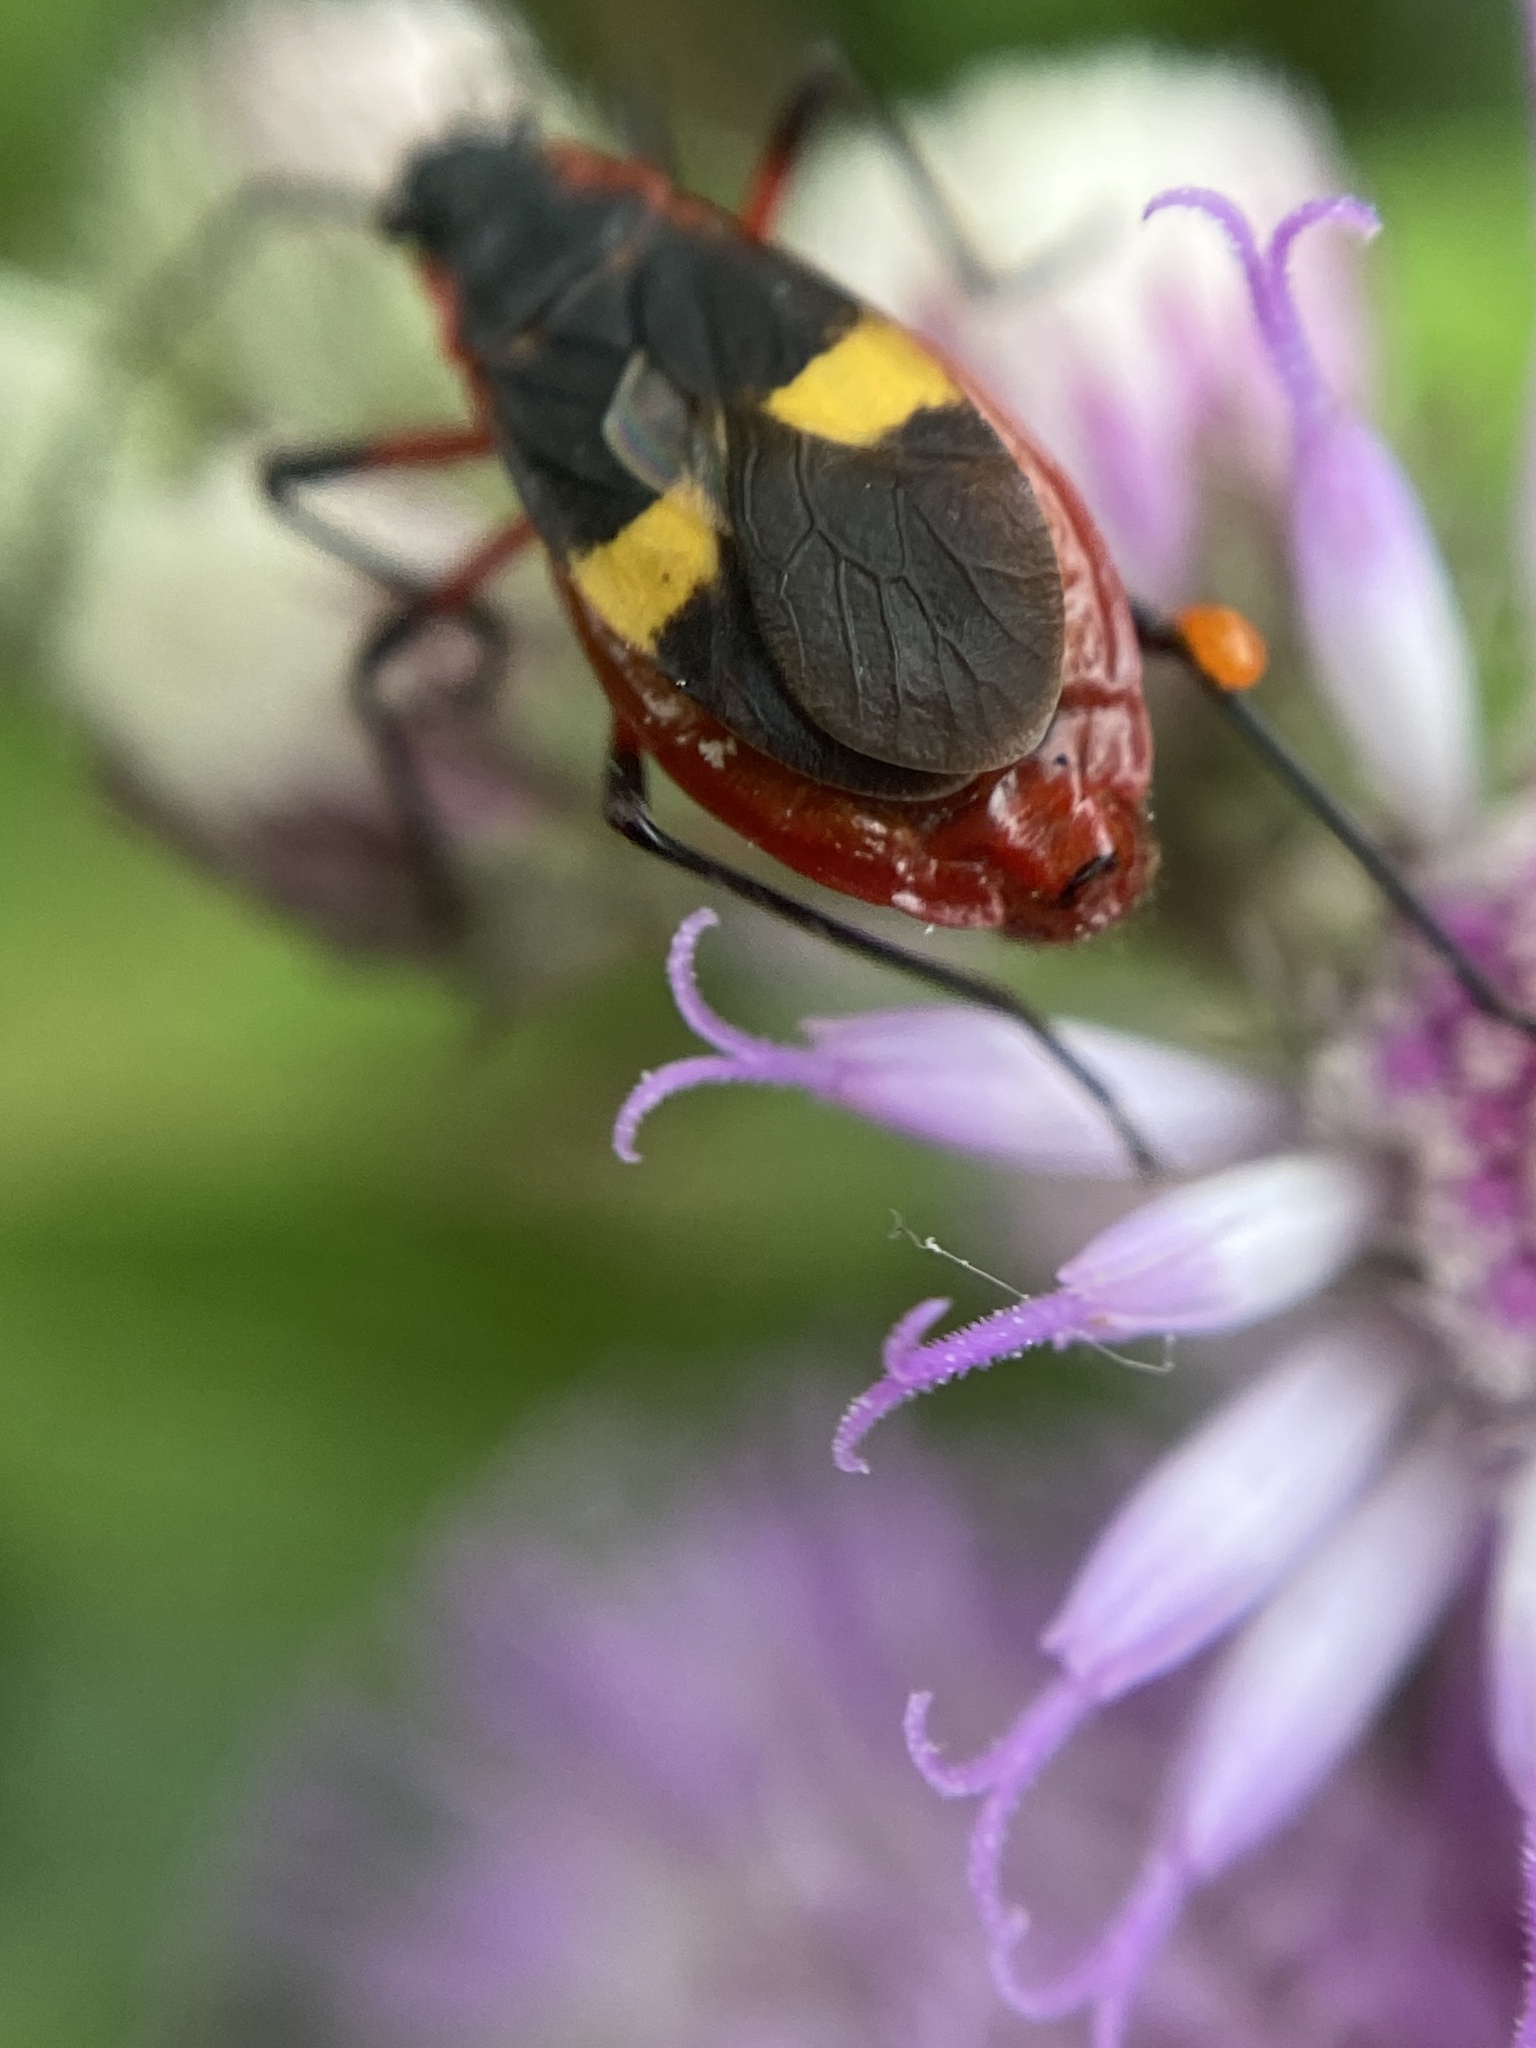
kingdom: Animalia
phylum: Arthropoda
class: Insecta
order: Hemiptera
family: Pyrrhocoridae
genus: Dysdercus
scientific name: Dysdercus albofasciatus
